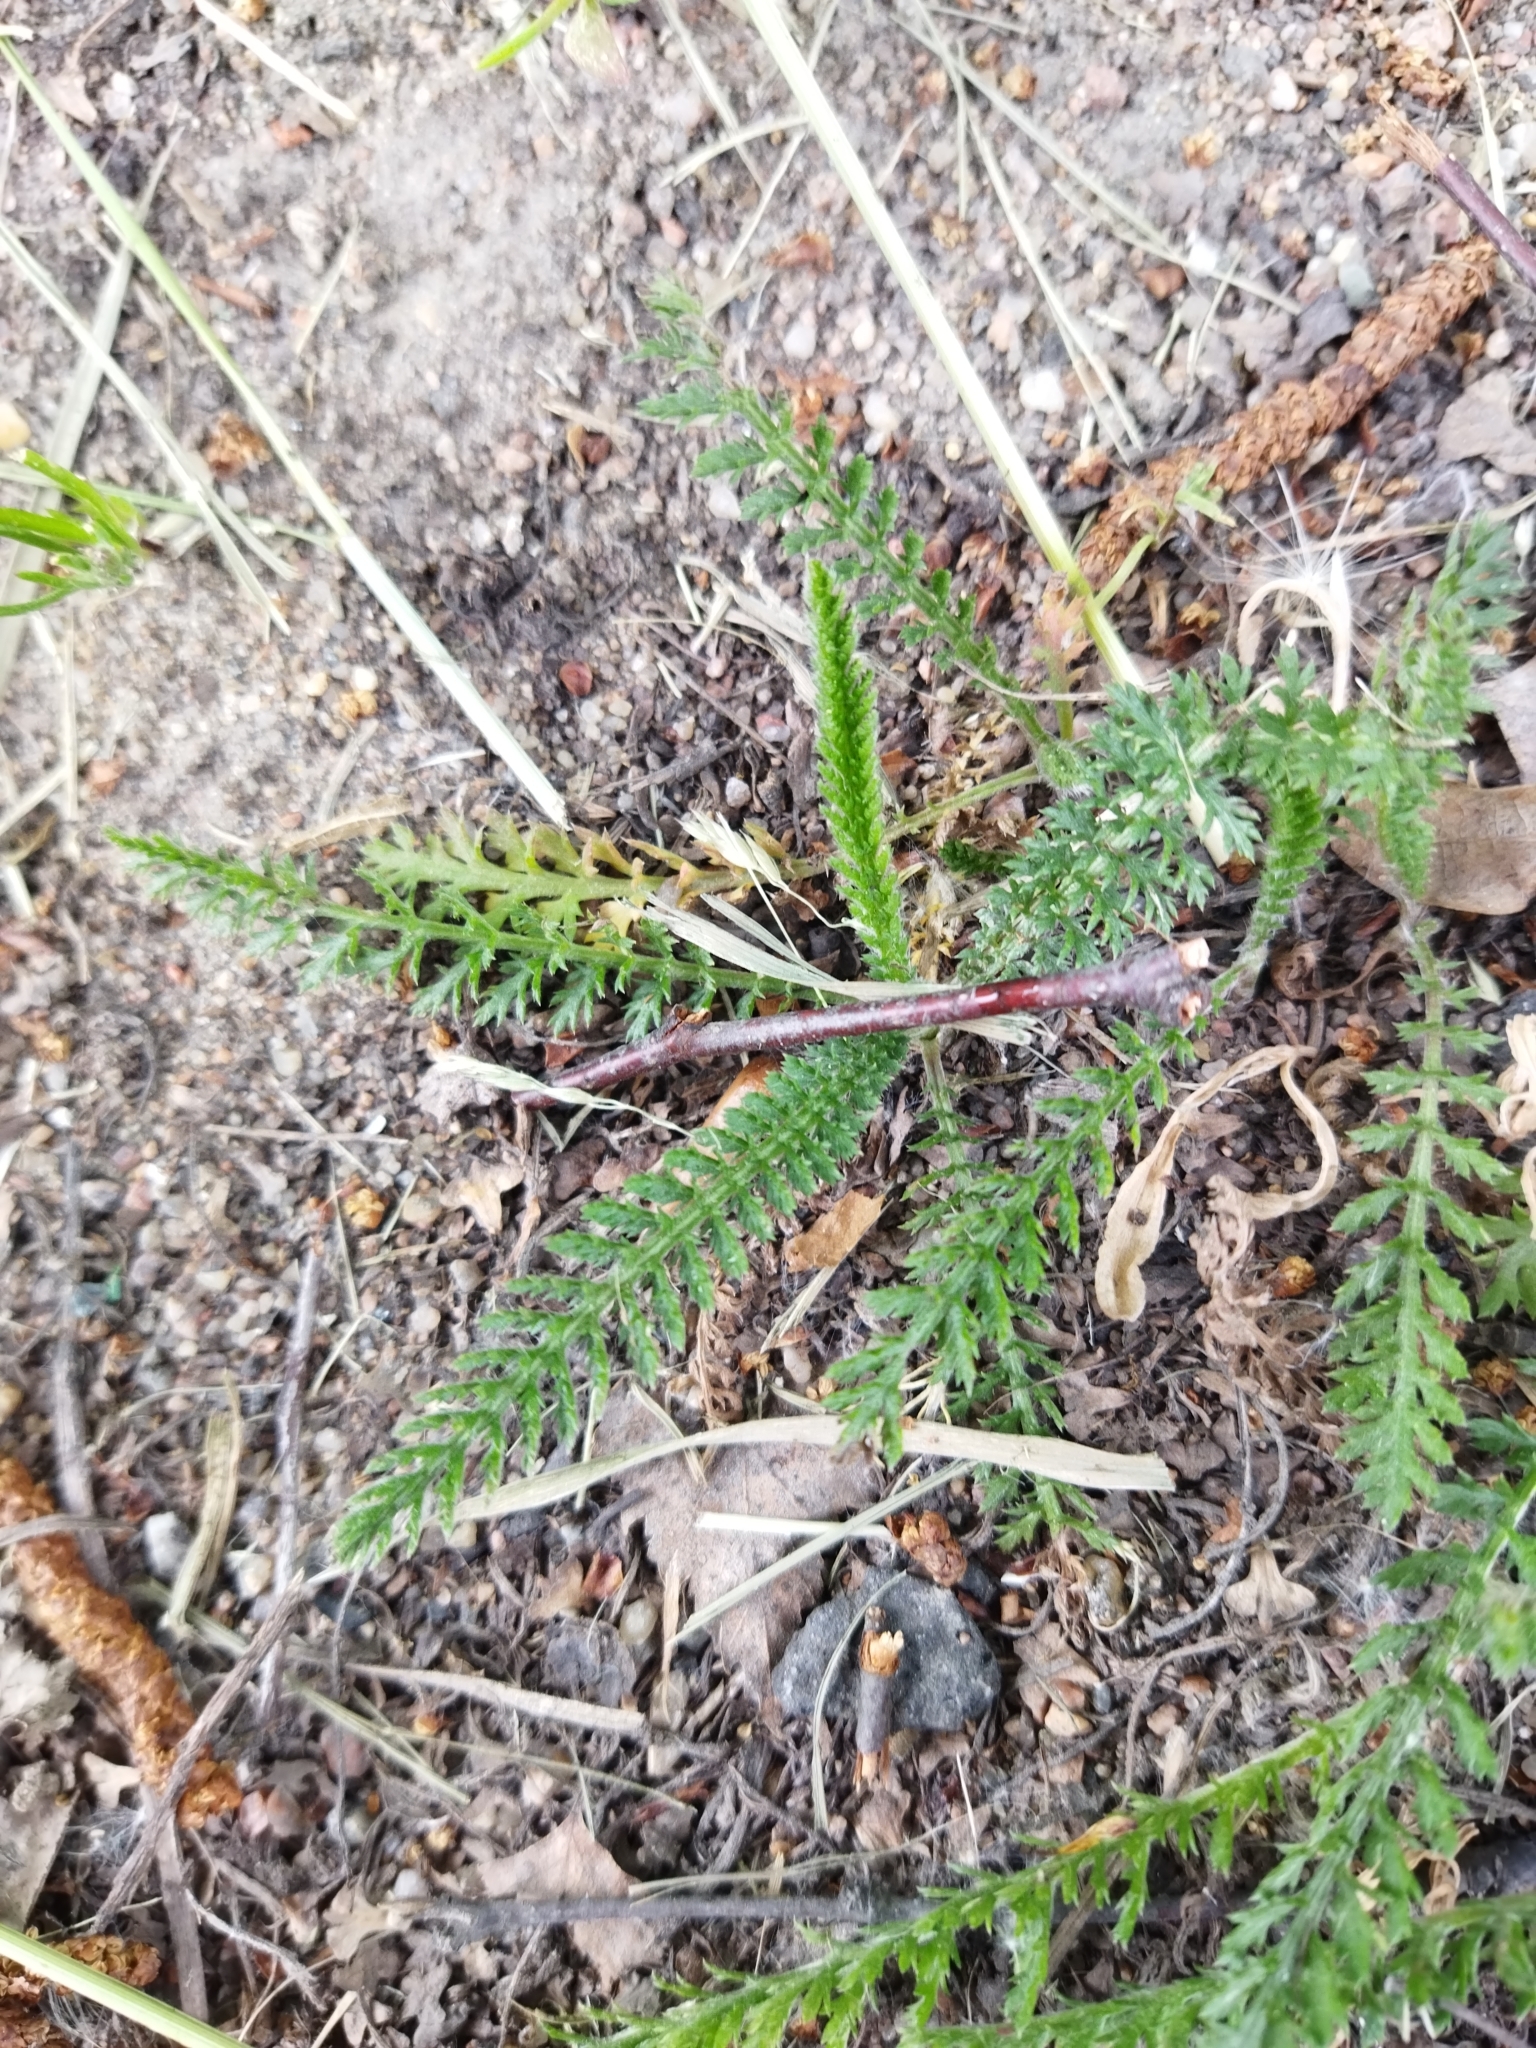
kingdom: Plantae
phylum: Tracheophyta
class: Magnoliopsida
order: Asterales
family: Asteraceae
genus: Achillea
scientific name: Achillea millefolium
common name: Yarrow
